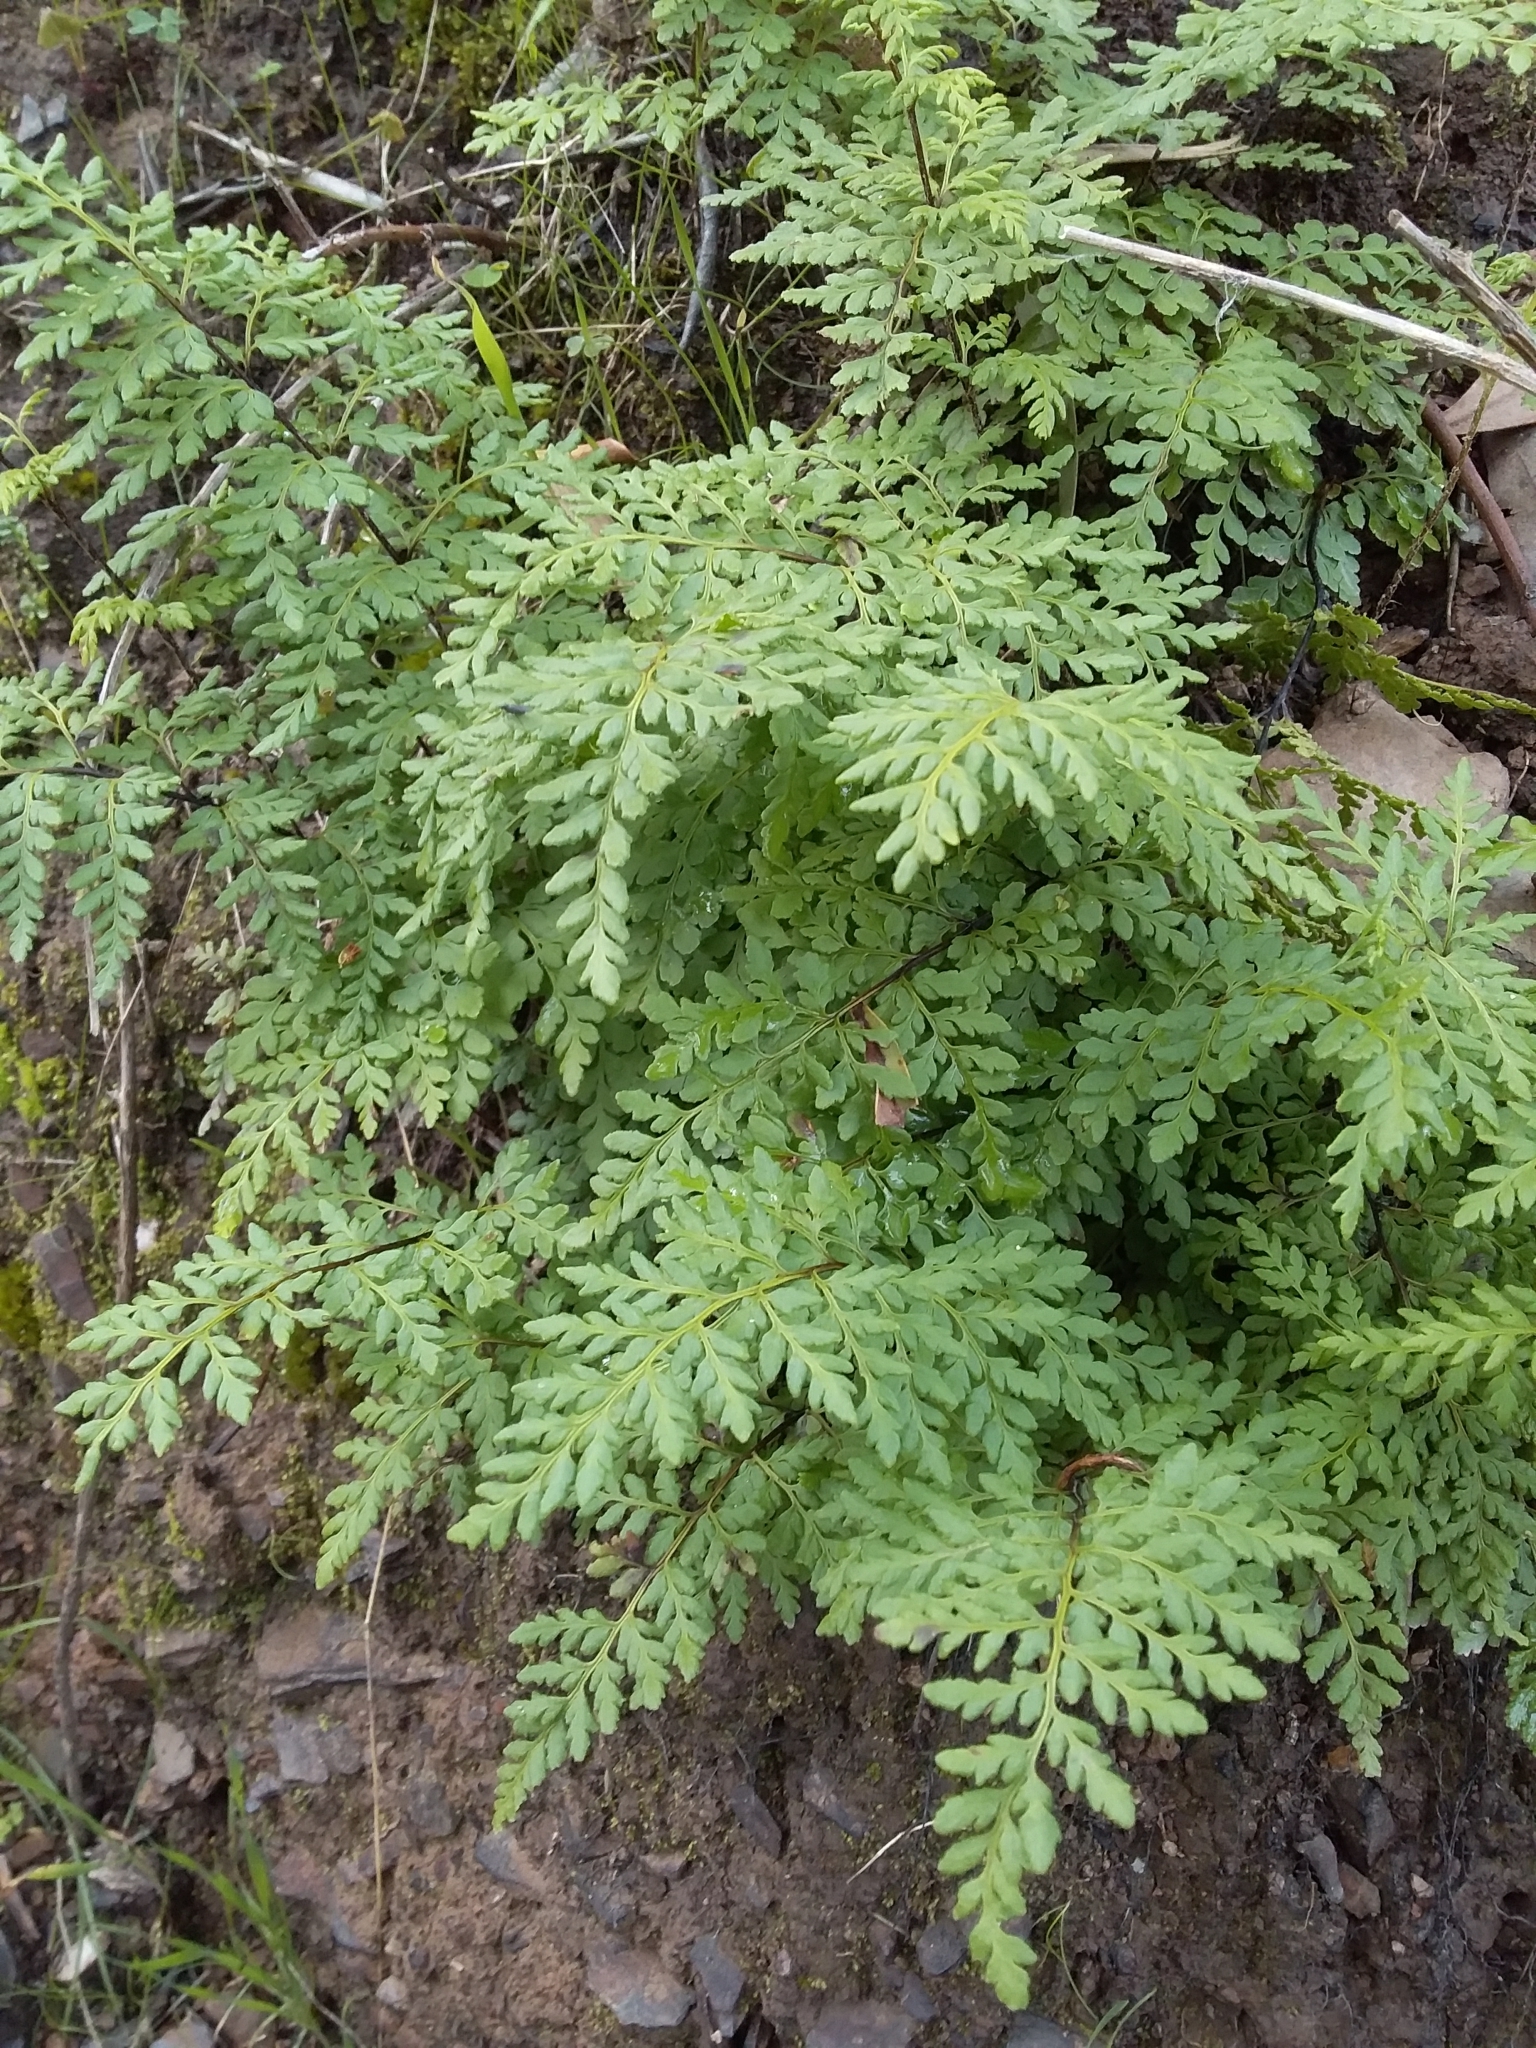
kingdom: Plantae
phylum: Tracheophyta
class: Polypodiopsida
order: Polypodiales
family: Pteridaceae
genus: Cheilanthes
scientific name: Cheilanthes austrotenuifolia
